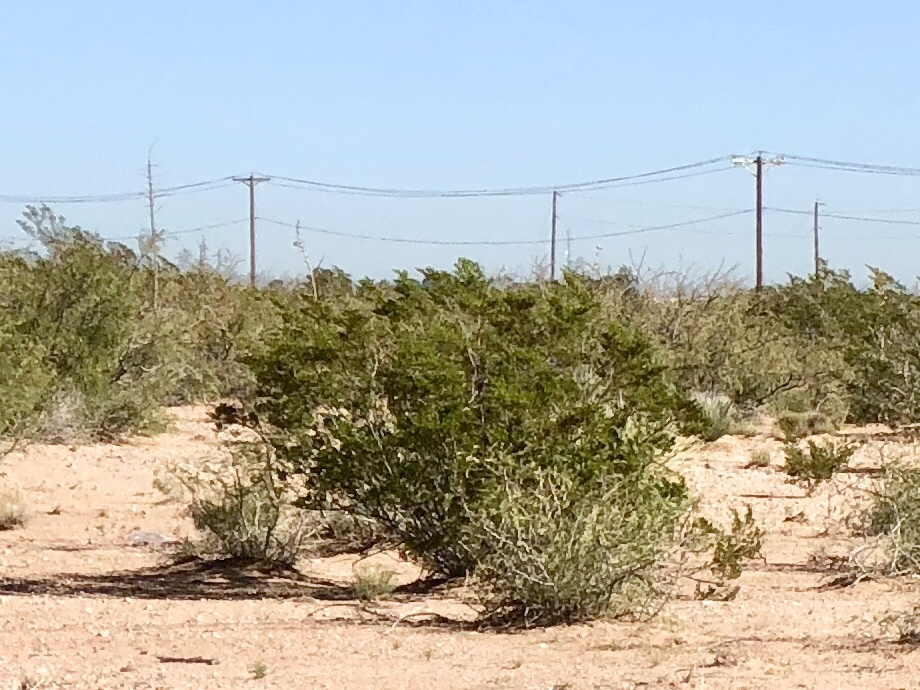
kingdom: Plantae
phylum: Tracheophyta
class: Magnoliopsida
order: Zygophyllales
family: Zygophyllaceae
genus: Larrea
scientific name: Larrea tridentata
